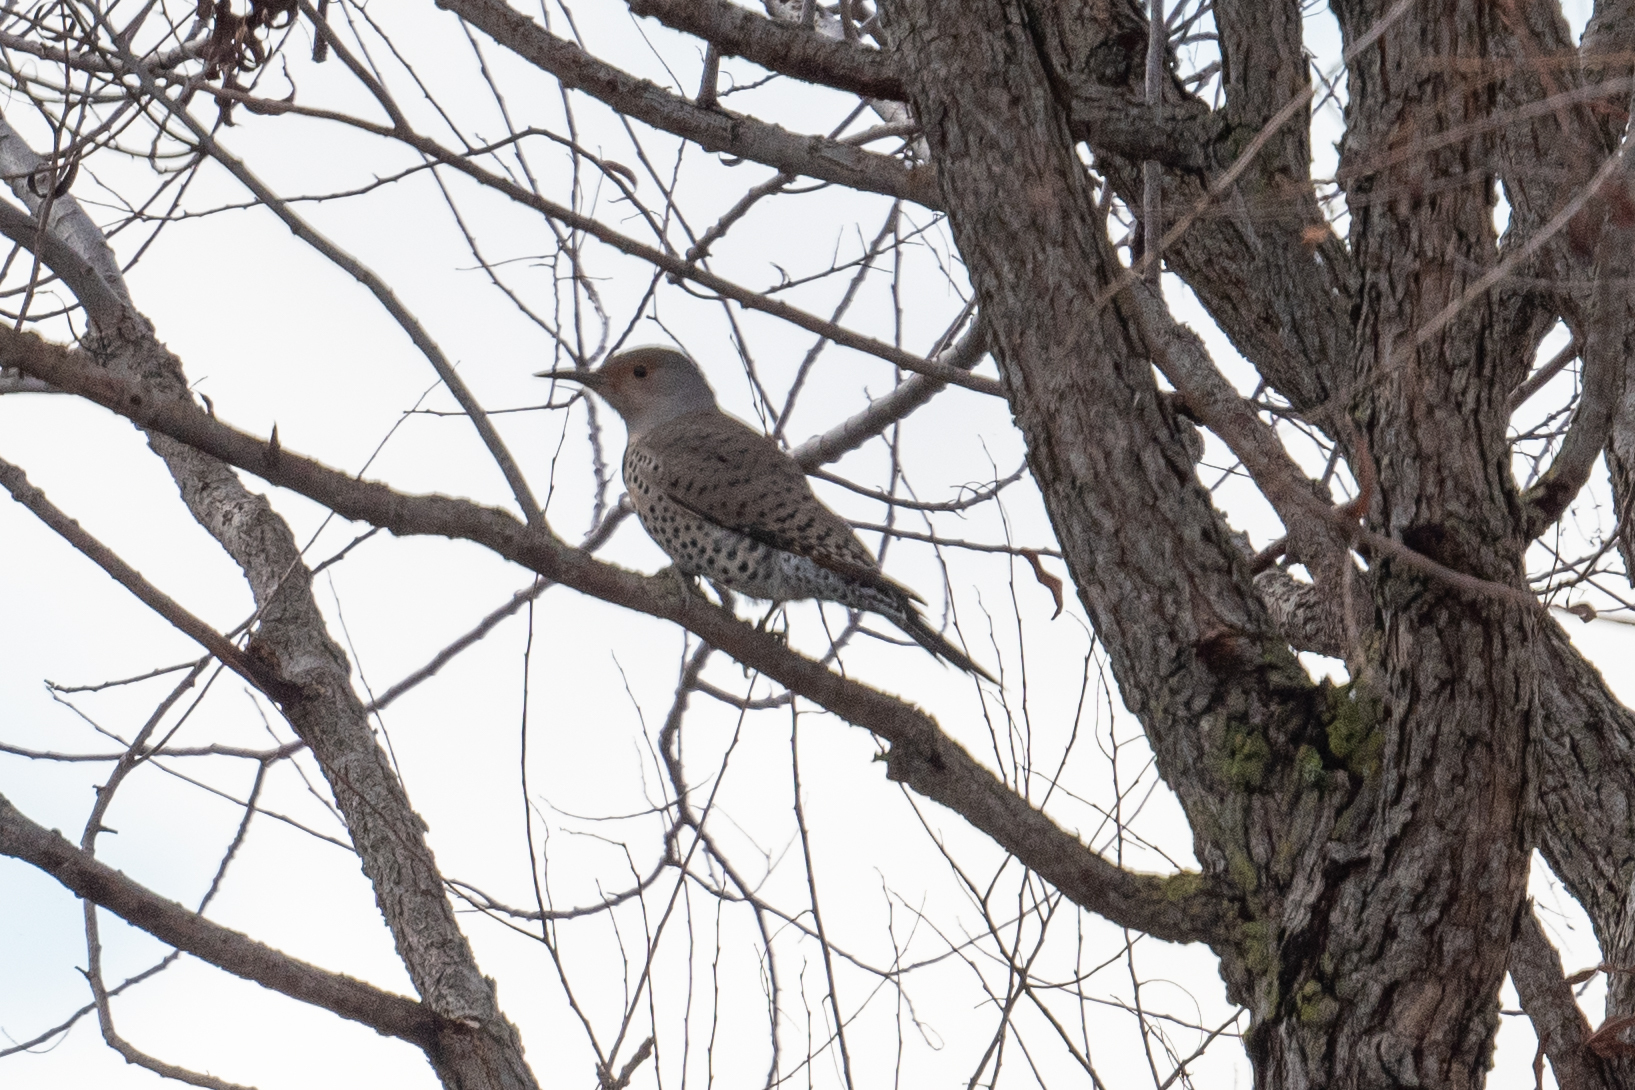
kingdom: Animalia
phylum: Chordata
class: Aves
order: Piciformes
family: Picidae
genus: Colaptes
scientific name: Colaptes auratus
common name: Northern flicker
